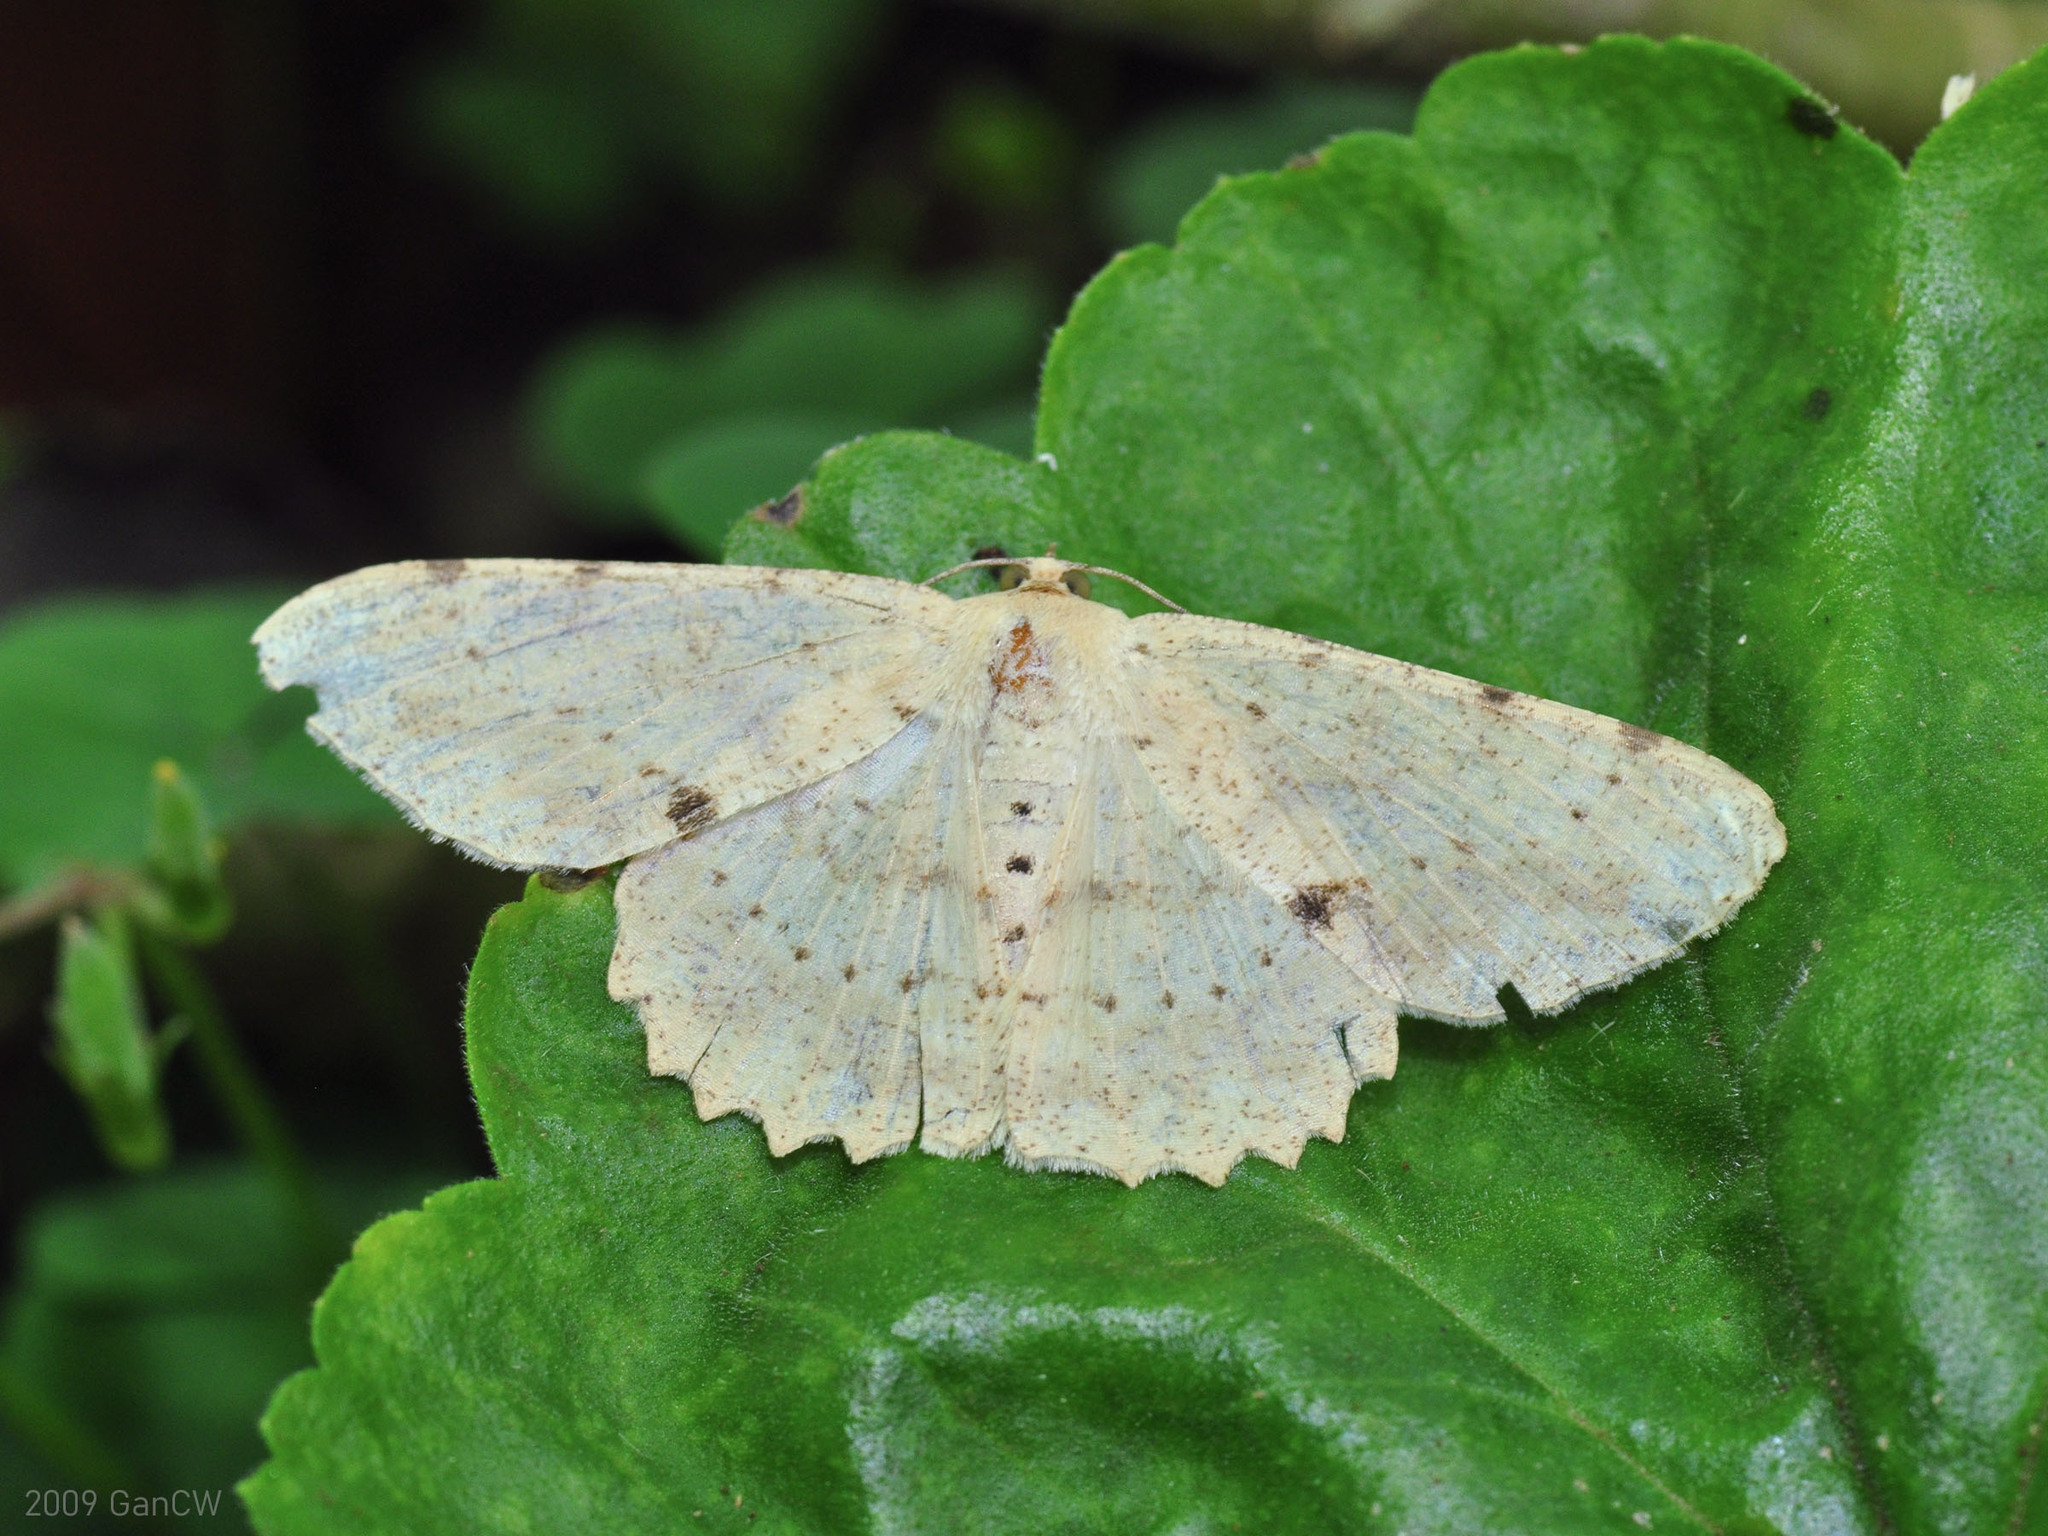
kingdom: Animalia
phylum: Arthropoda
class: Insecta
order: Lepidoptera
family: Geometridae
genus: Luxiaria
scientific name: Luxiaria emphatica
